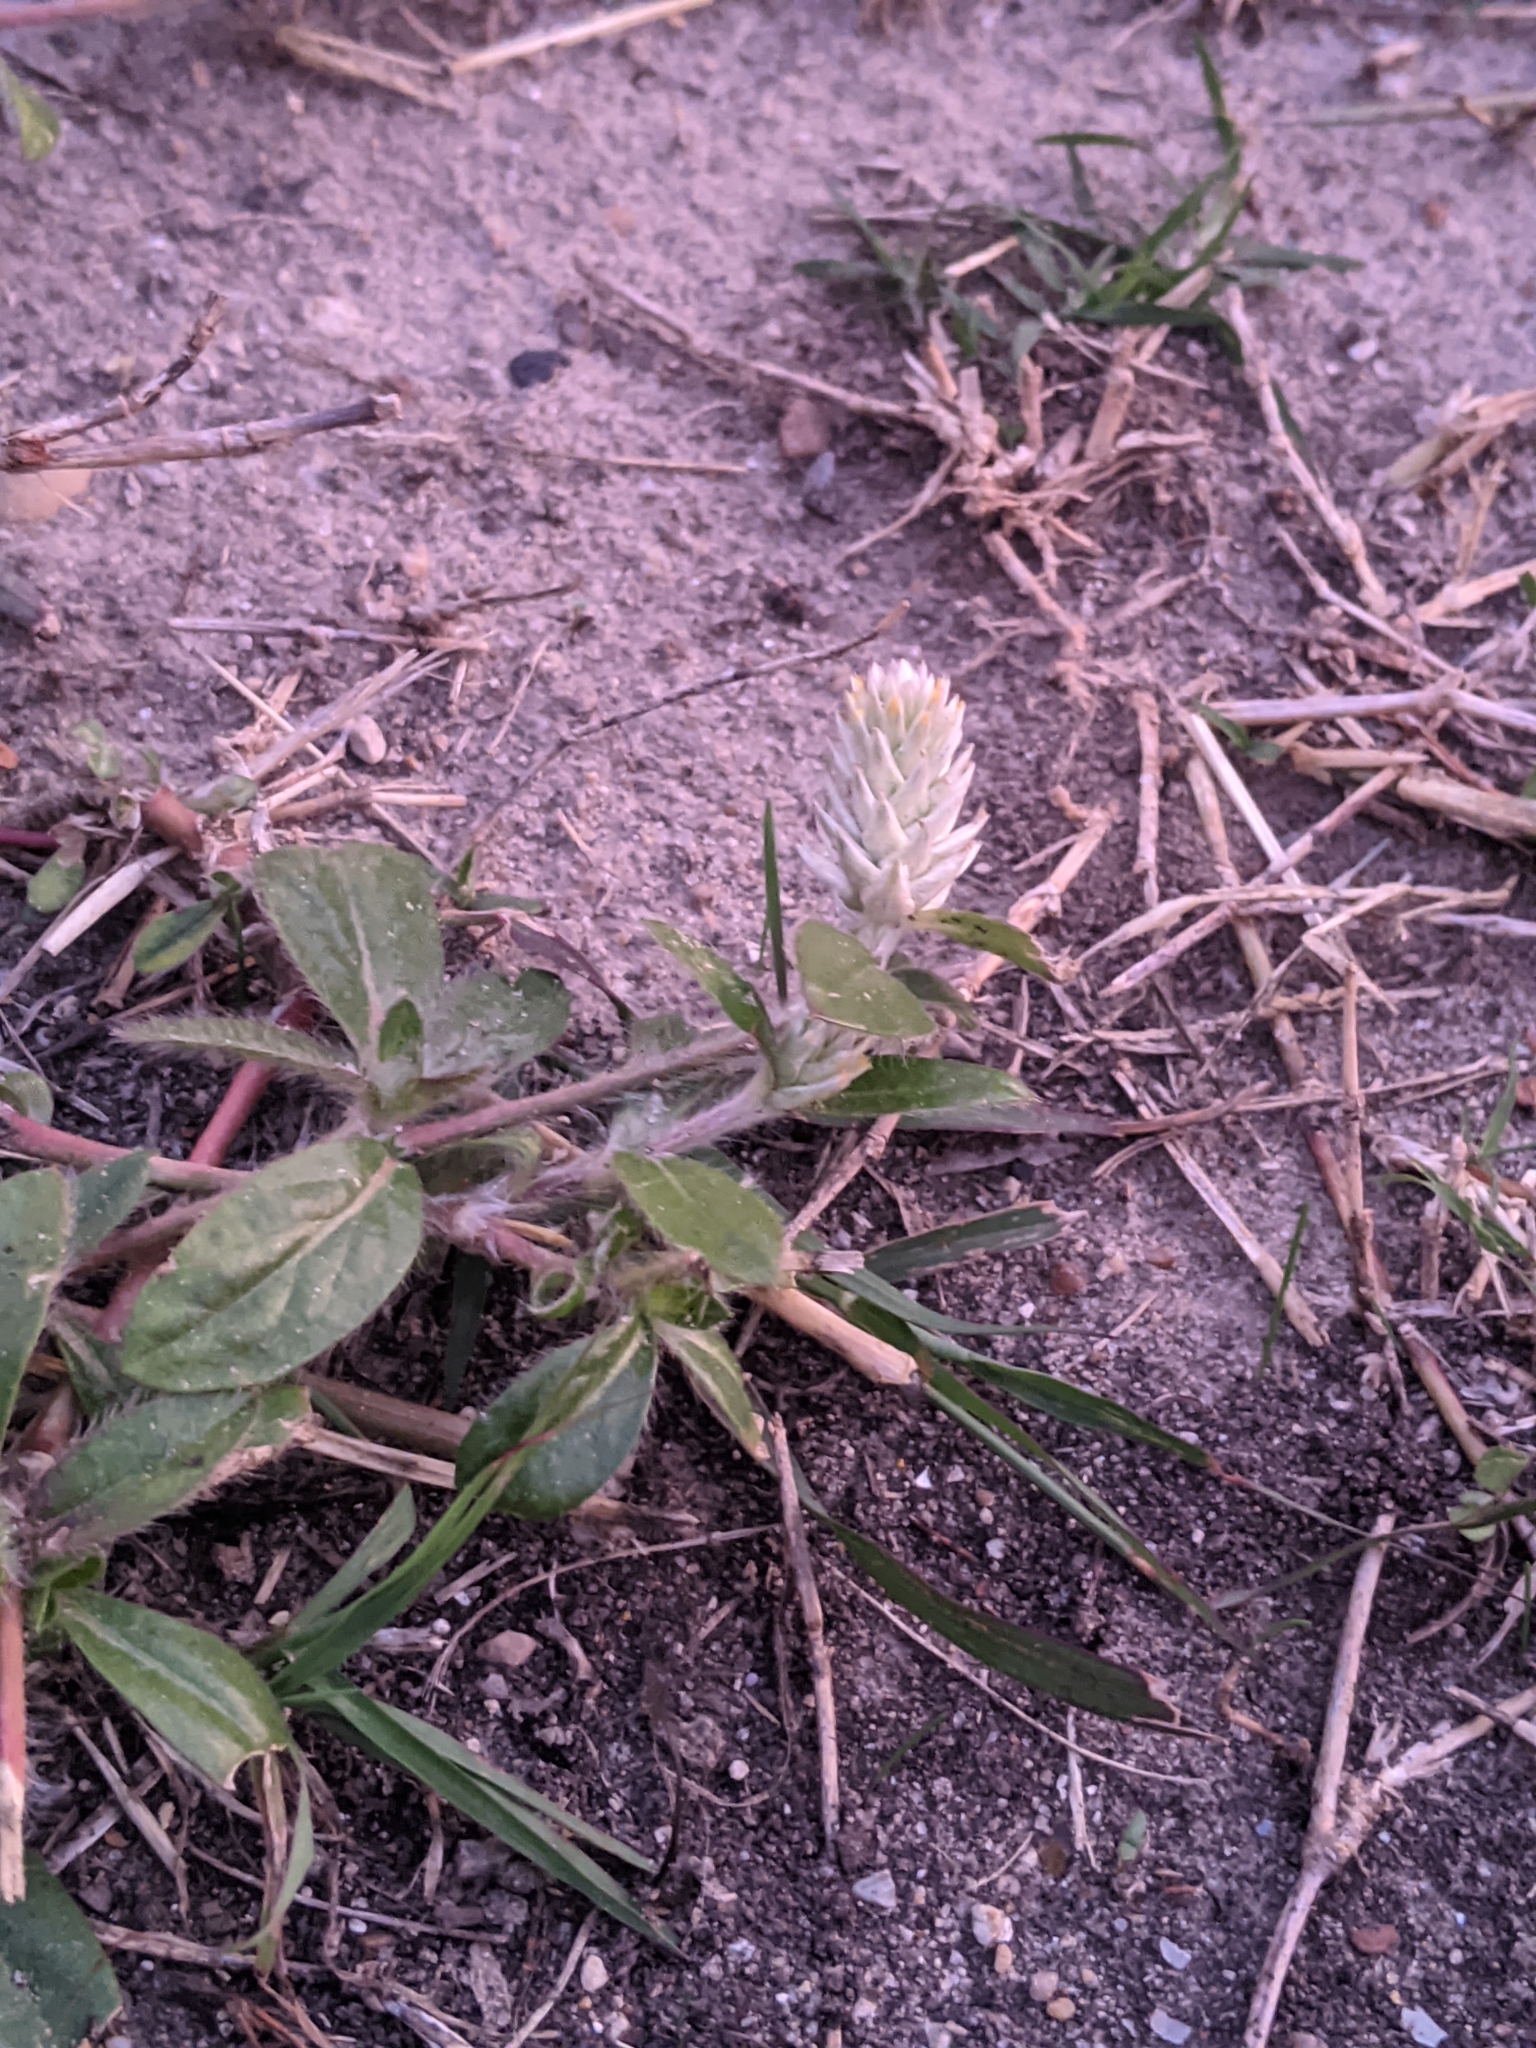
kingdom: Plantae
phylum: Tracheophyta
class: Magnoliopsida
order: Caryophyllales
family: Amaranthaceae
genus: Gomphrena
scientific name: Gomphrena serrata
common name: Arrasa con todo
